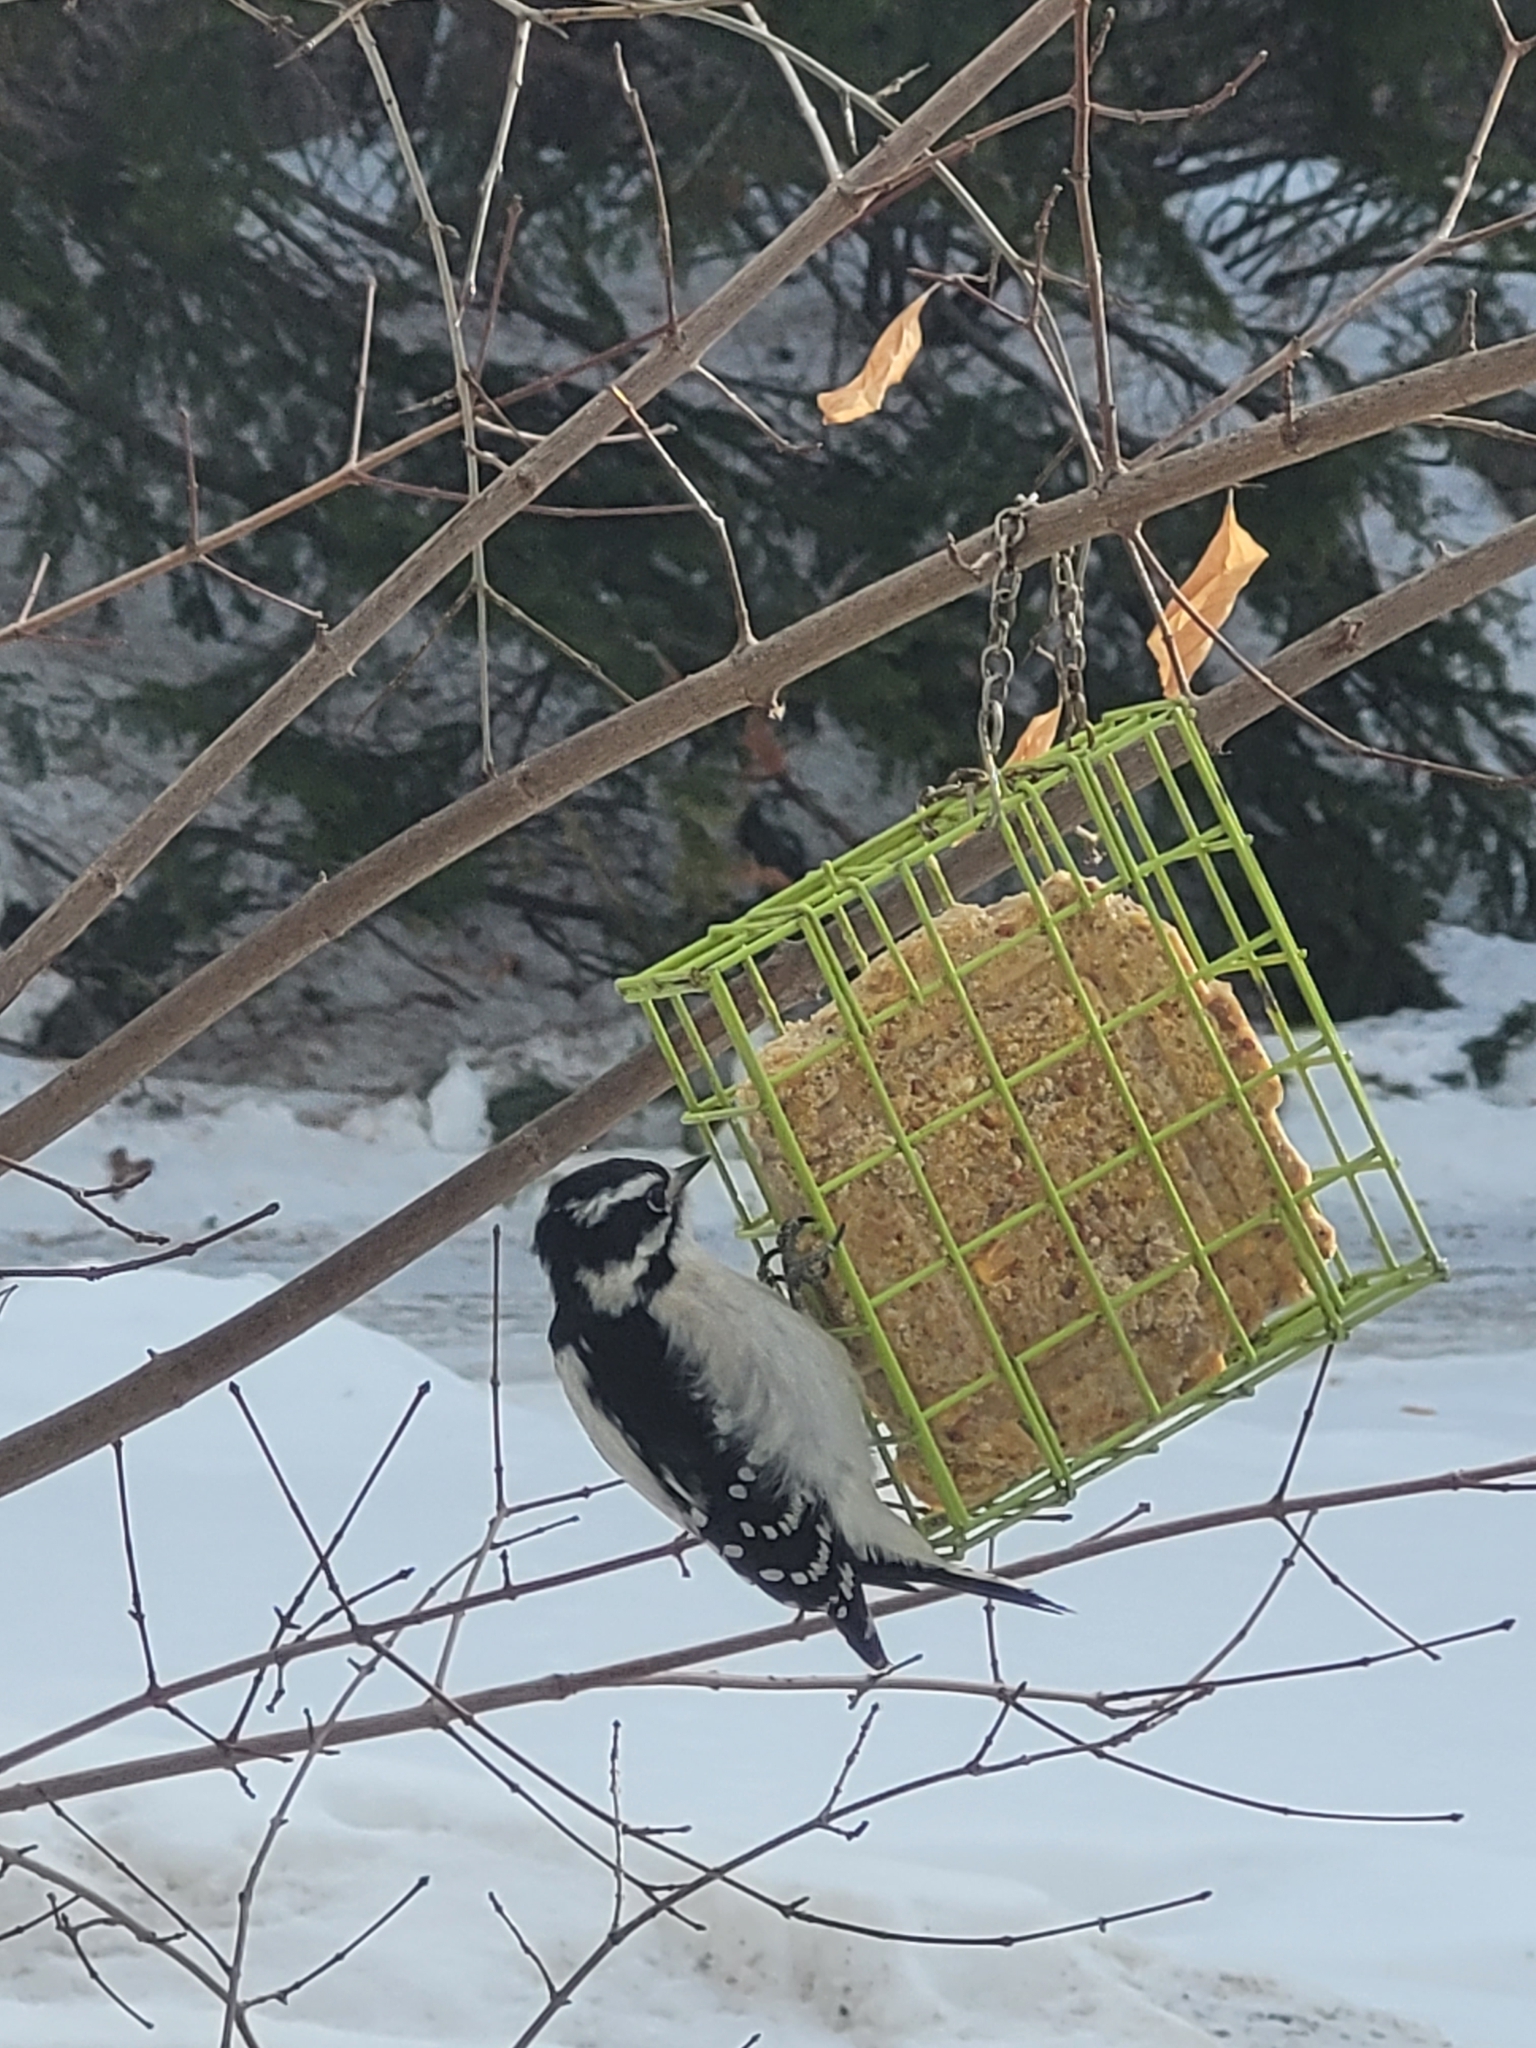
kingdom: Animalia
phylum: Chordata
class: Aves
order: Piciformes
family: Picidae
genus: Dryobates
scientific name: Dryobates pubescens
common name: Downy woodpecker
